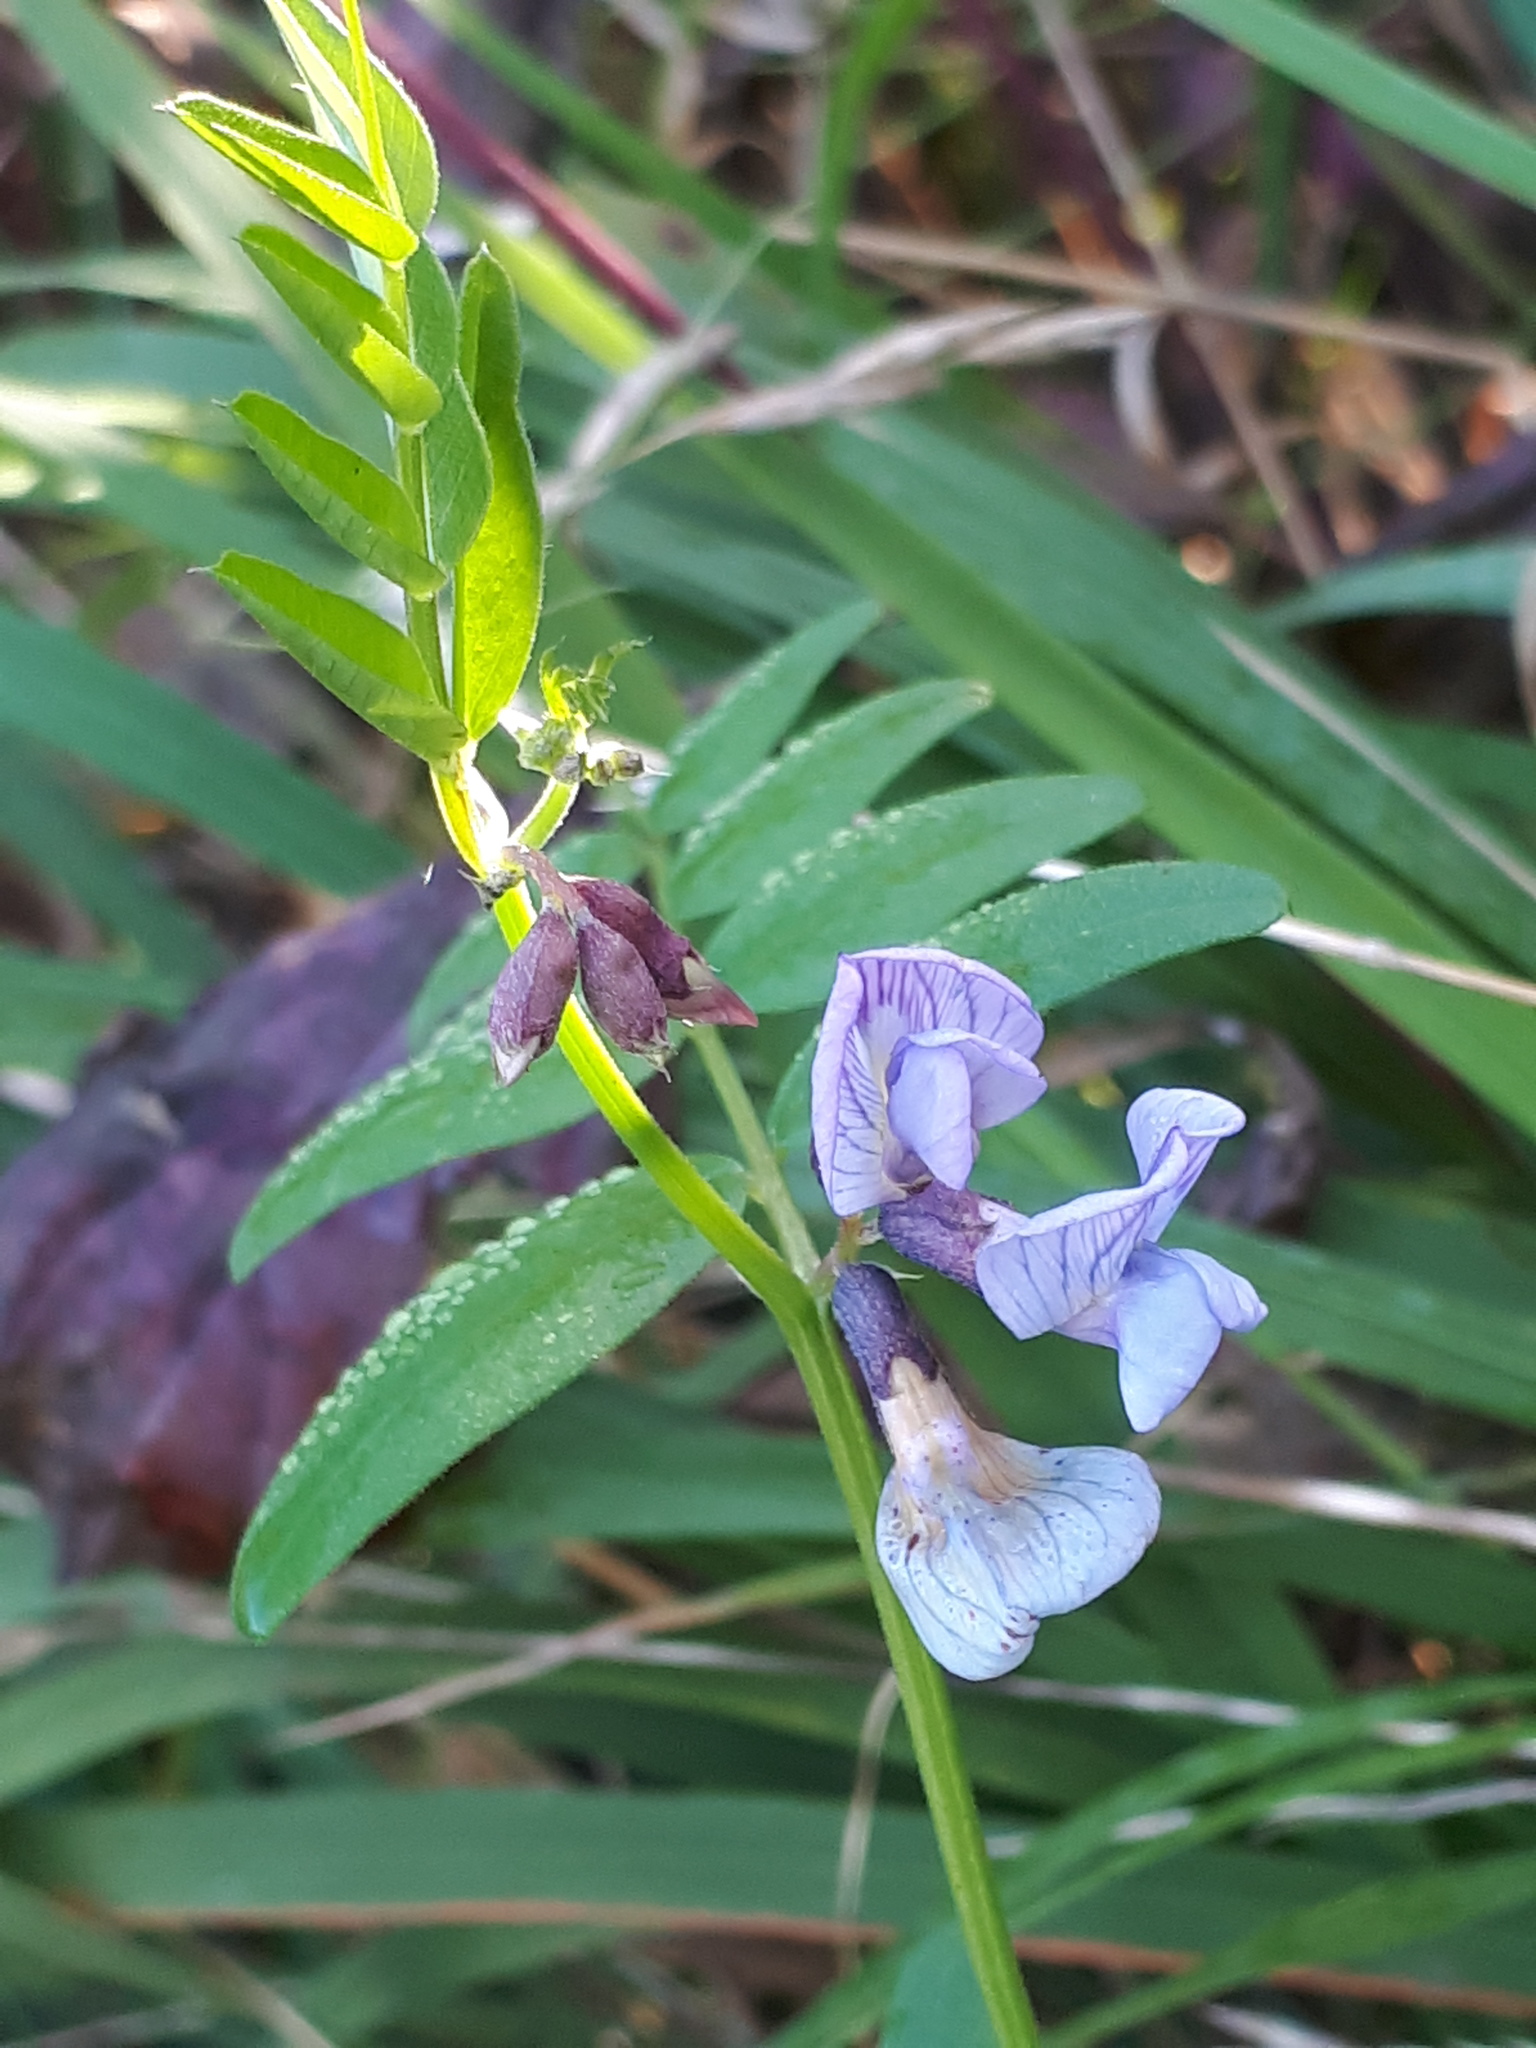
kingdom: Plantae
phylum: Tracheophyta
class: Magnoliopsida
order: Fabales
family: Fabaceae
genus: Vicia
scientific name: Vicia sepium
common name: Bush vetch
